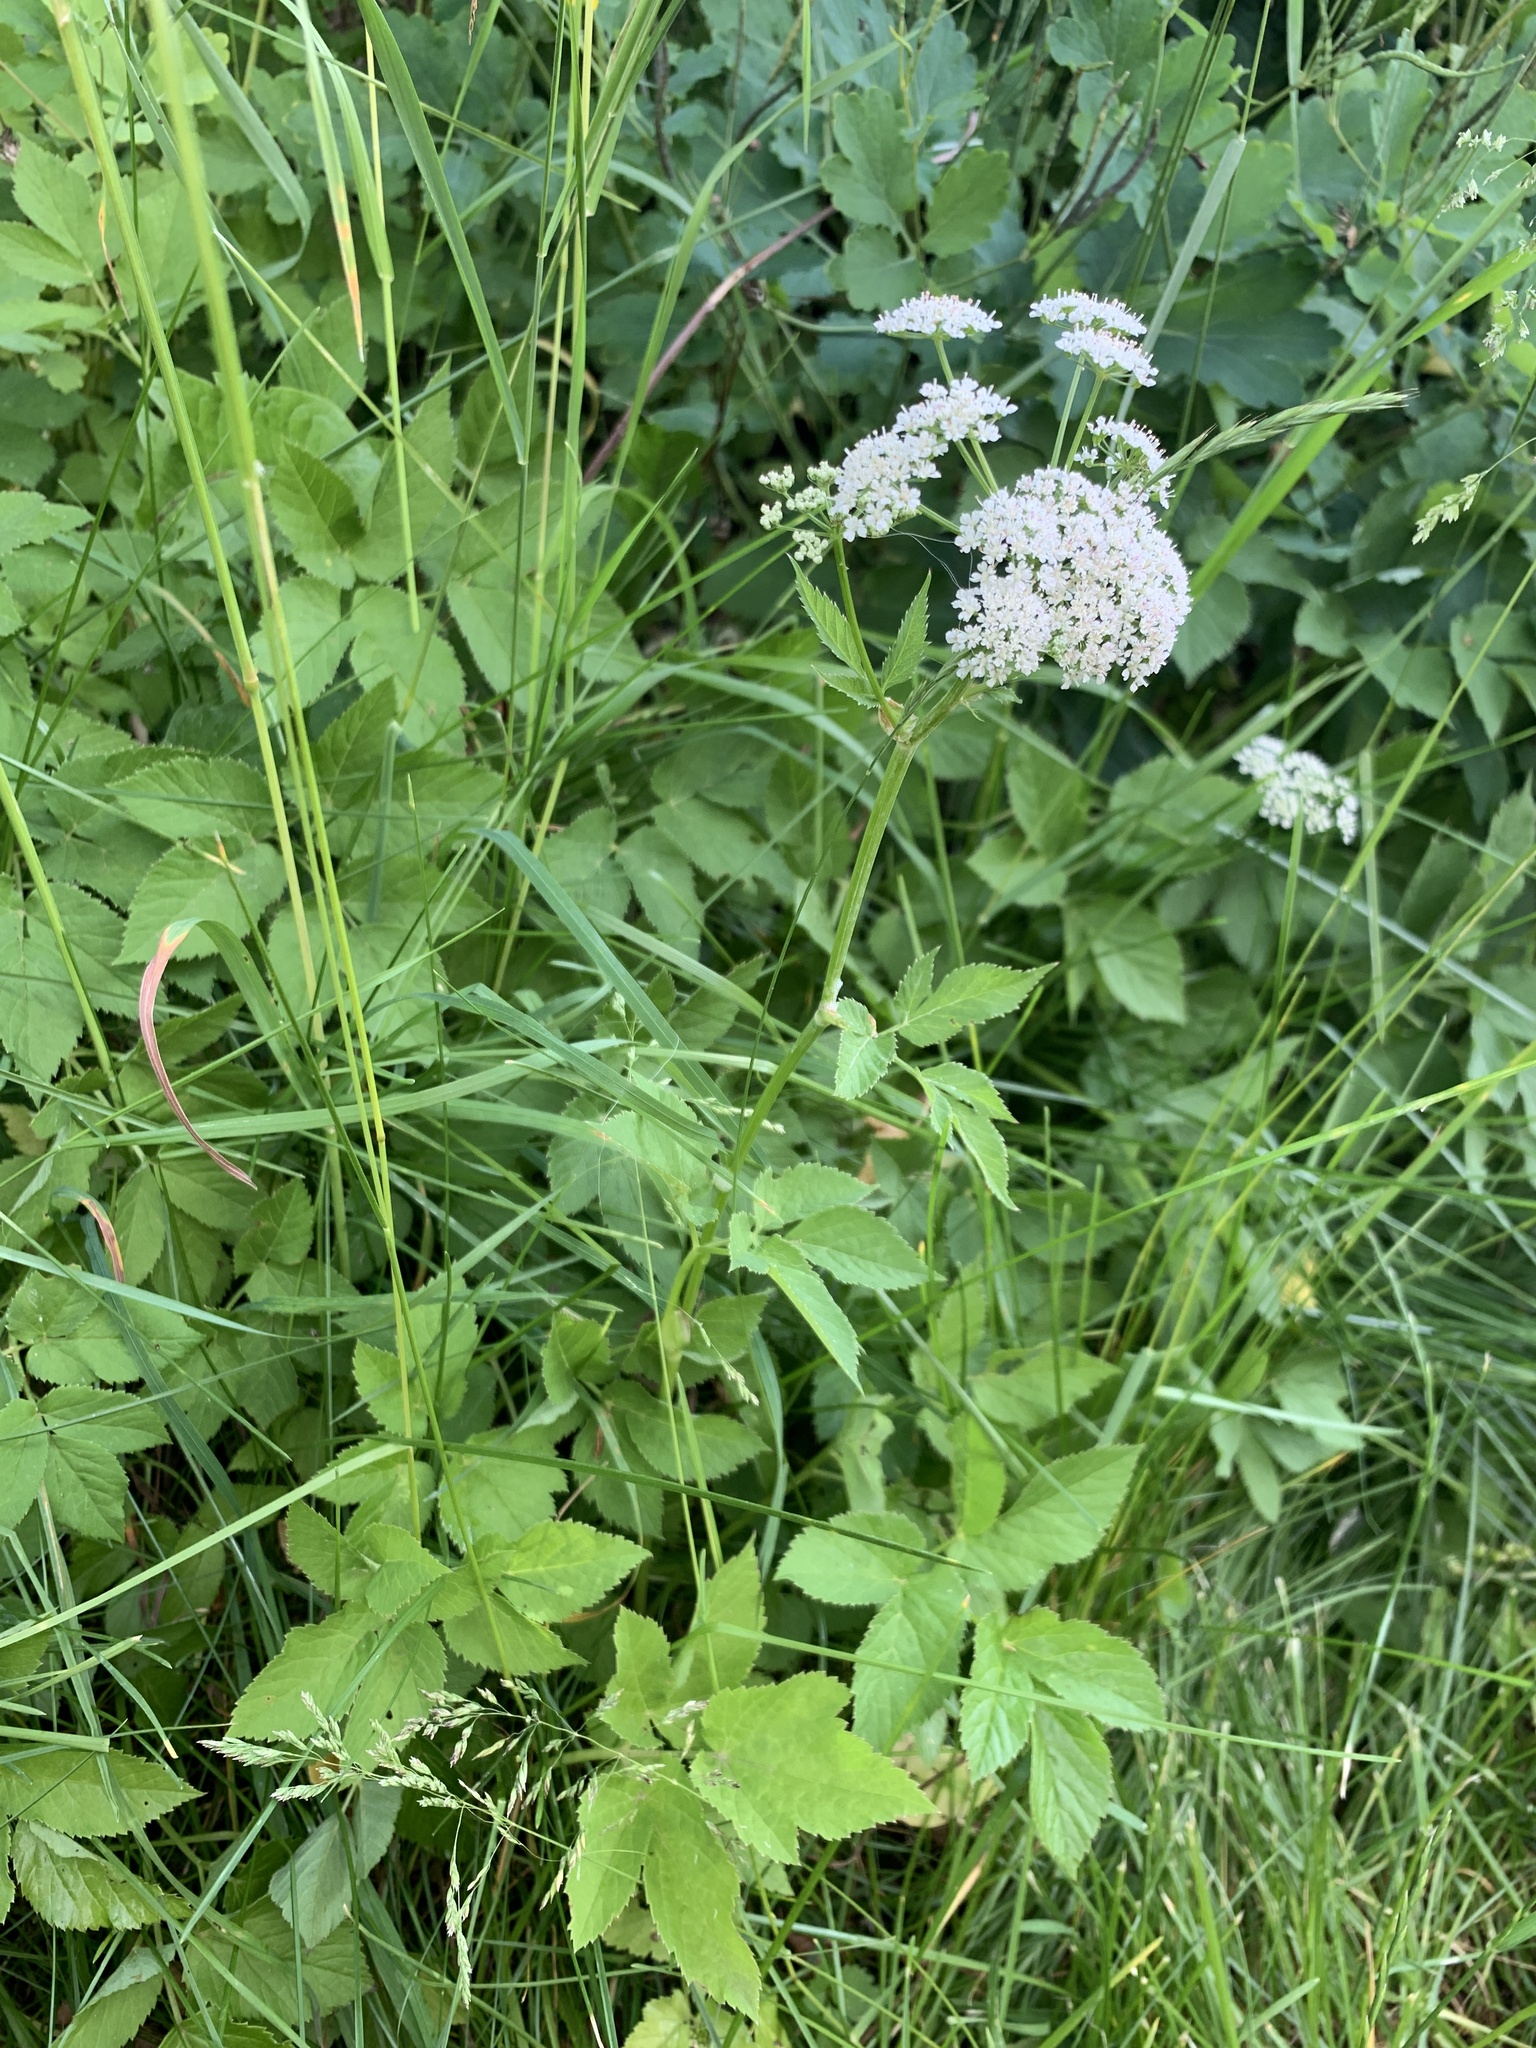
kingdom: Plantae
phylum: Tracheophyta
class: Magnoliopsida
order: Apiales
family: Apiaceae
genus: Aegopodium
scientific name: Aegopodium podagraria
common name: Ground-elder
